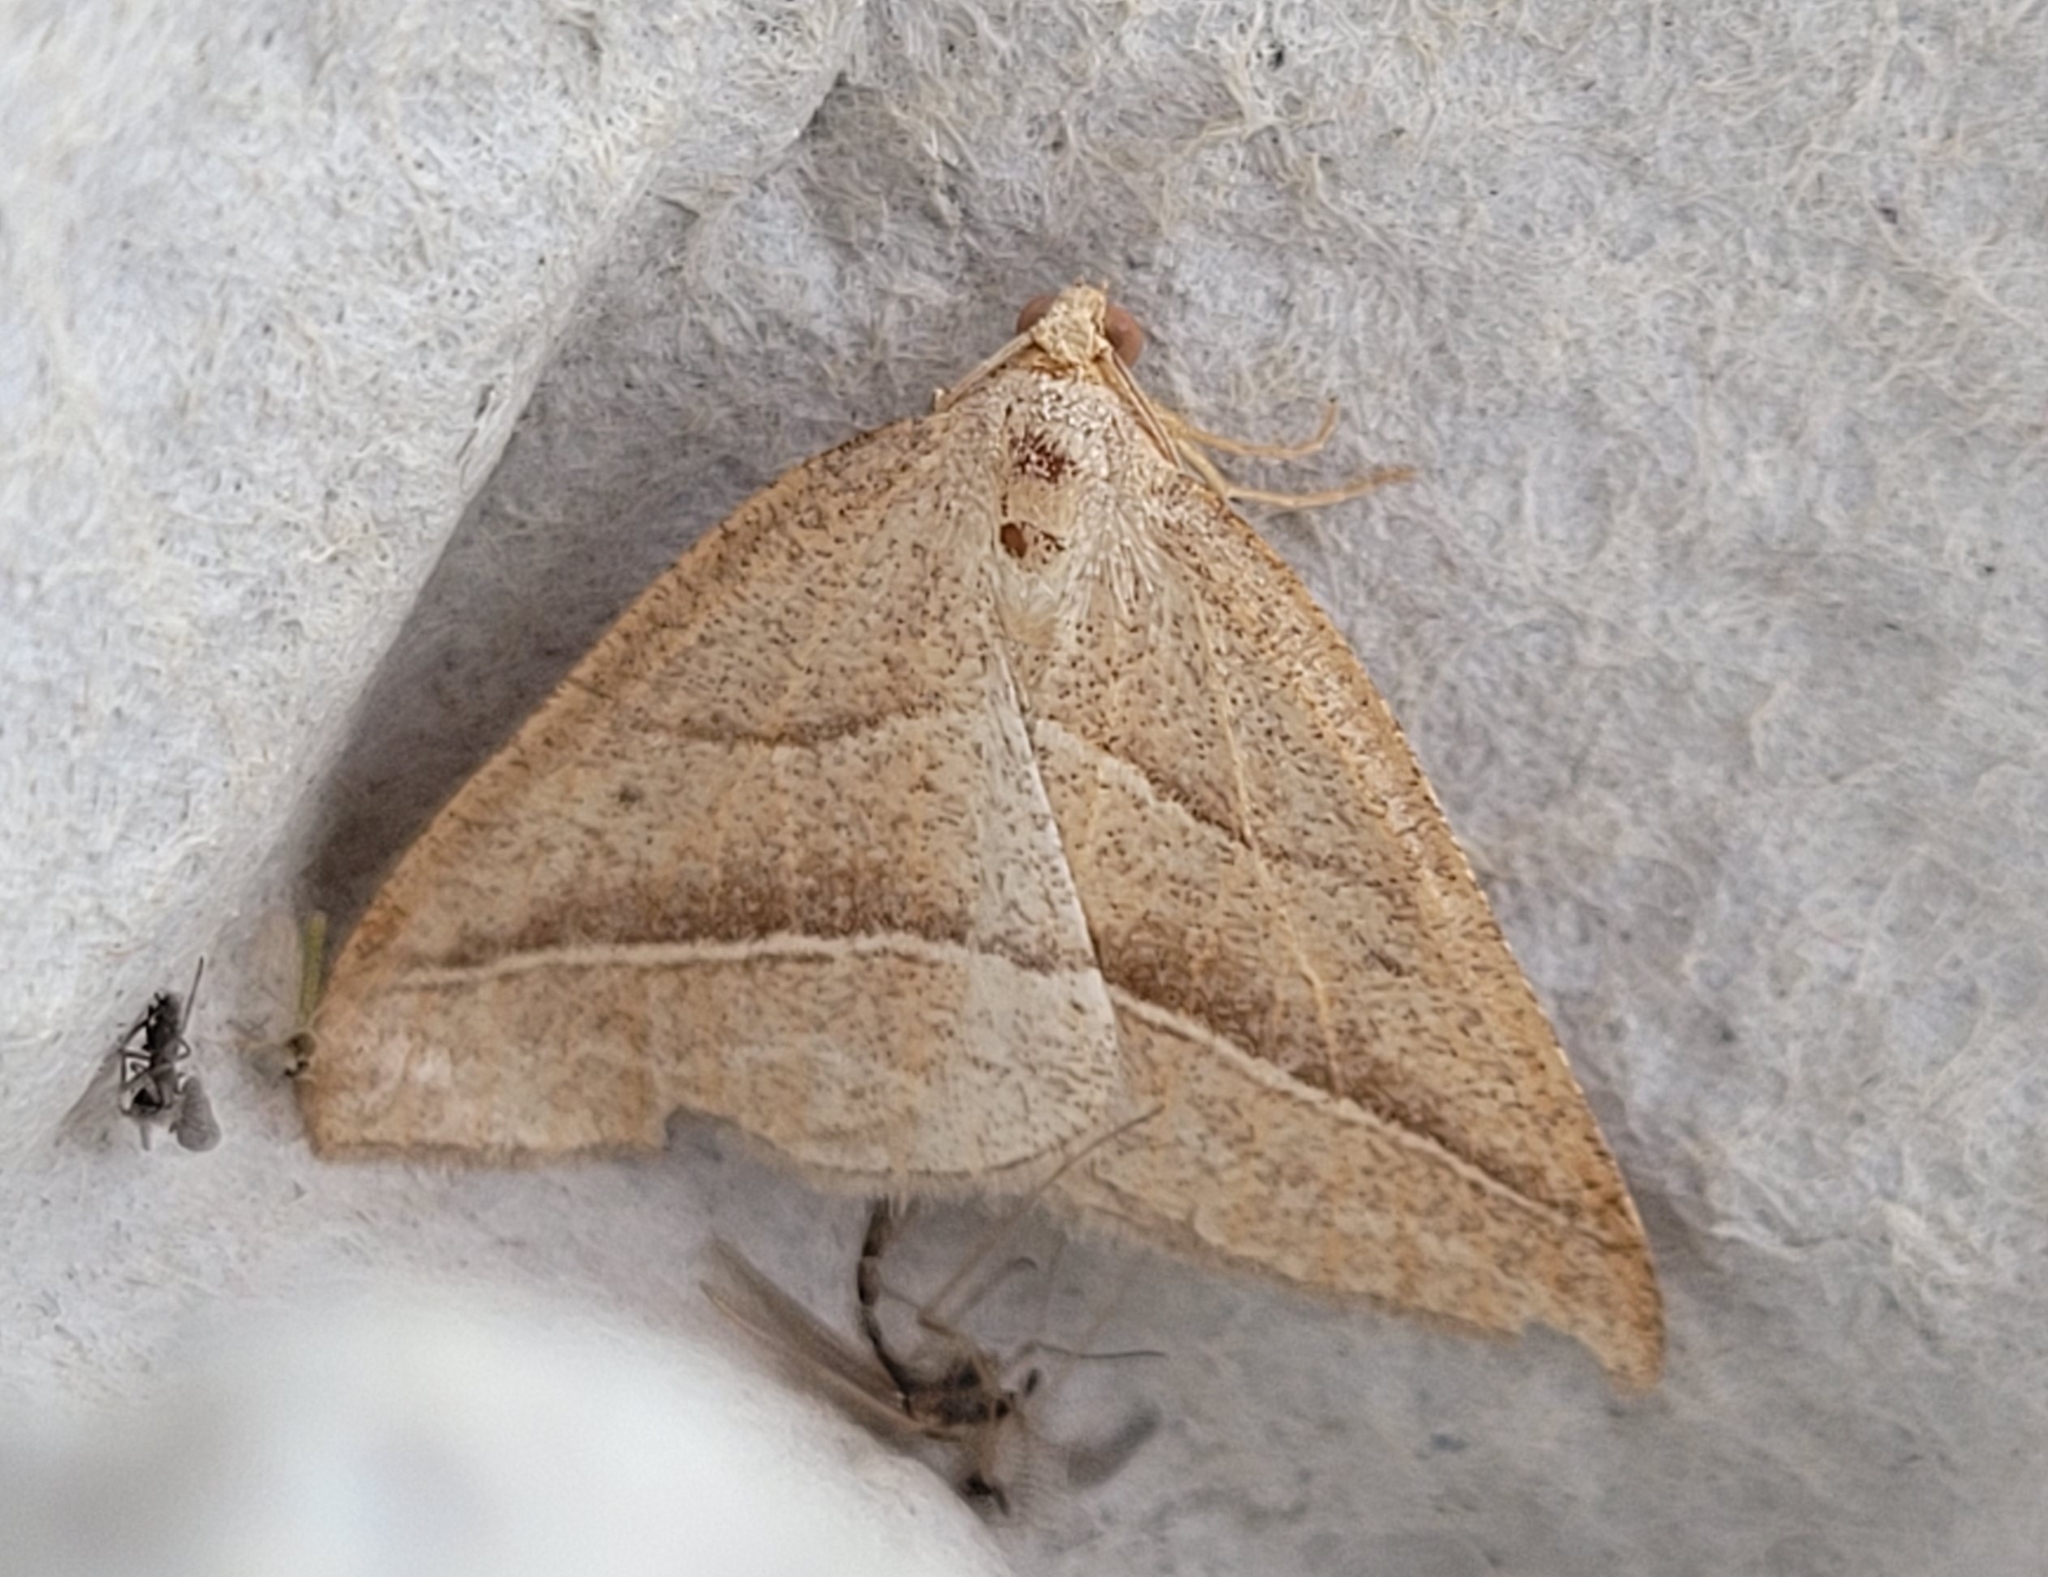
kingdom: Animalia
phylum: Arthropoda
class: Insecta
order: Lepidoptera
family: Pterophoridae
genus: Pterophorus
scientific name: Pterophorus Petrophora chlorosata
